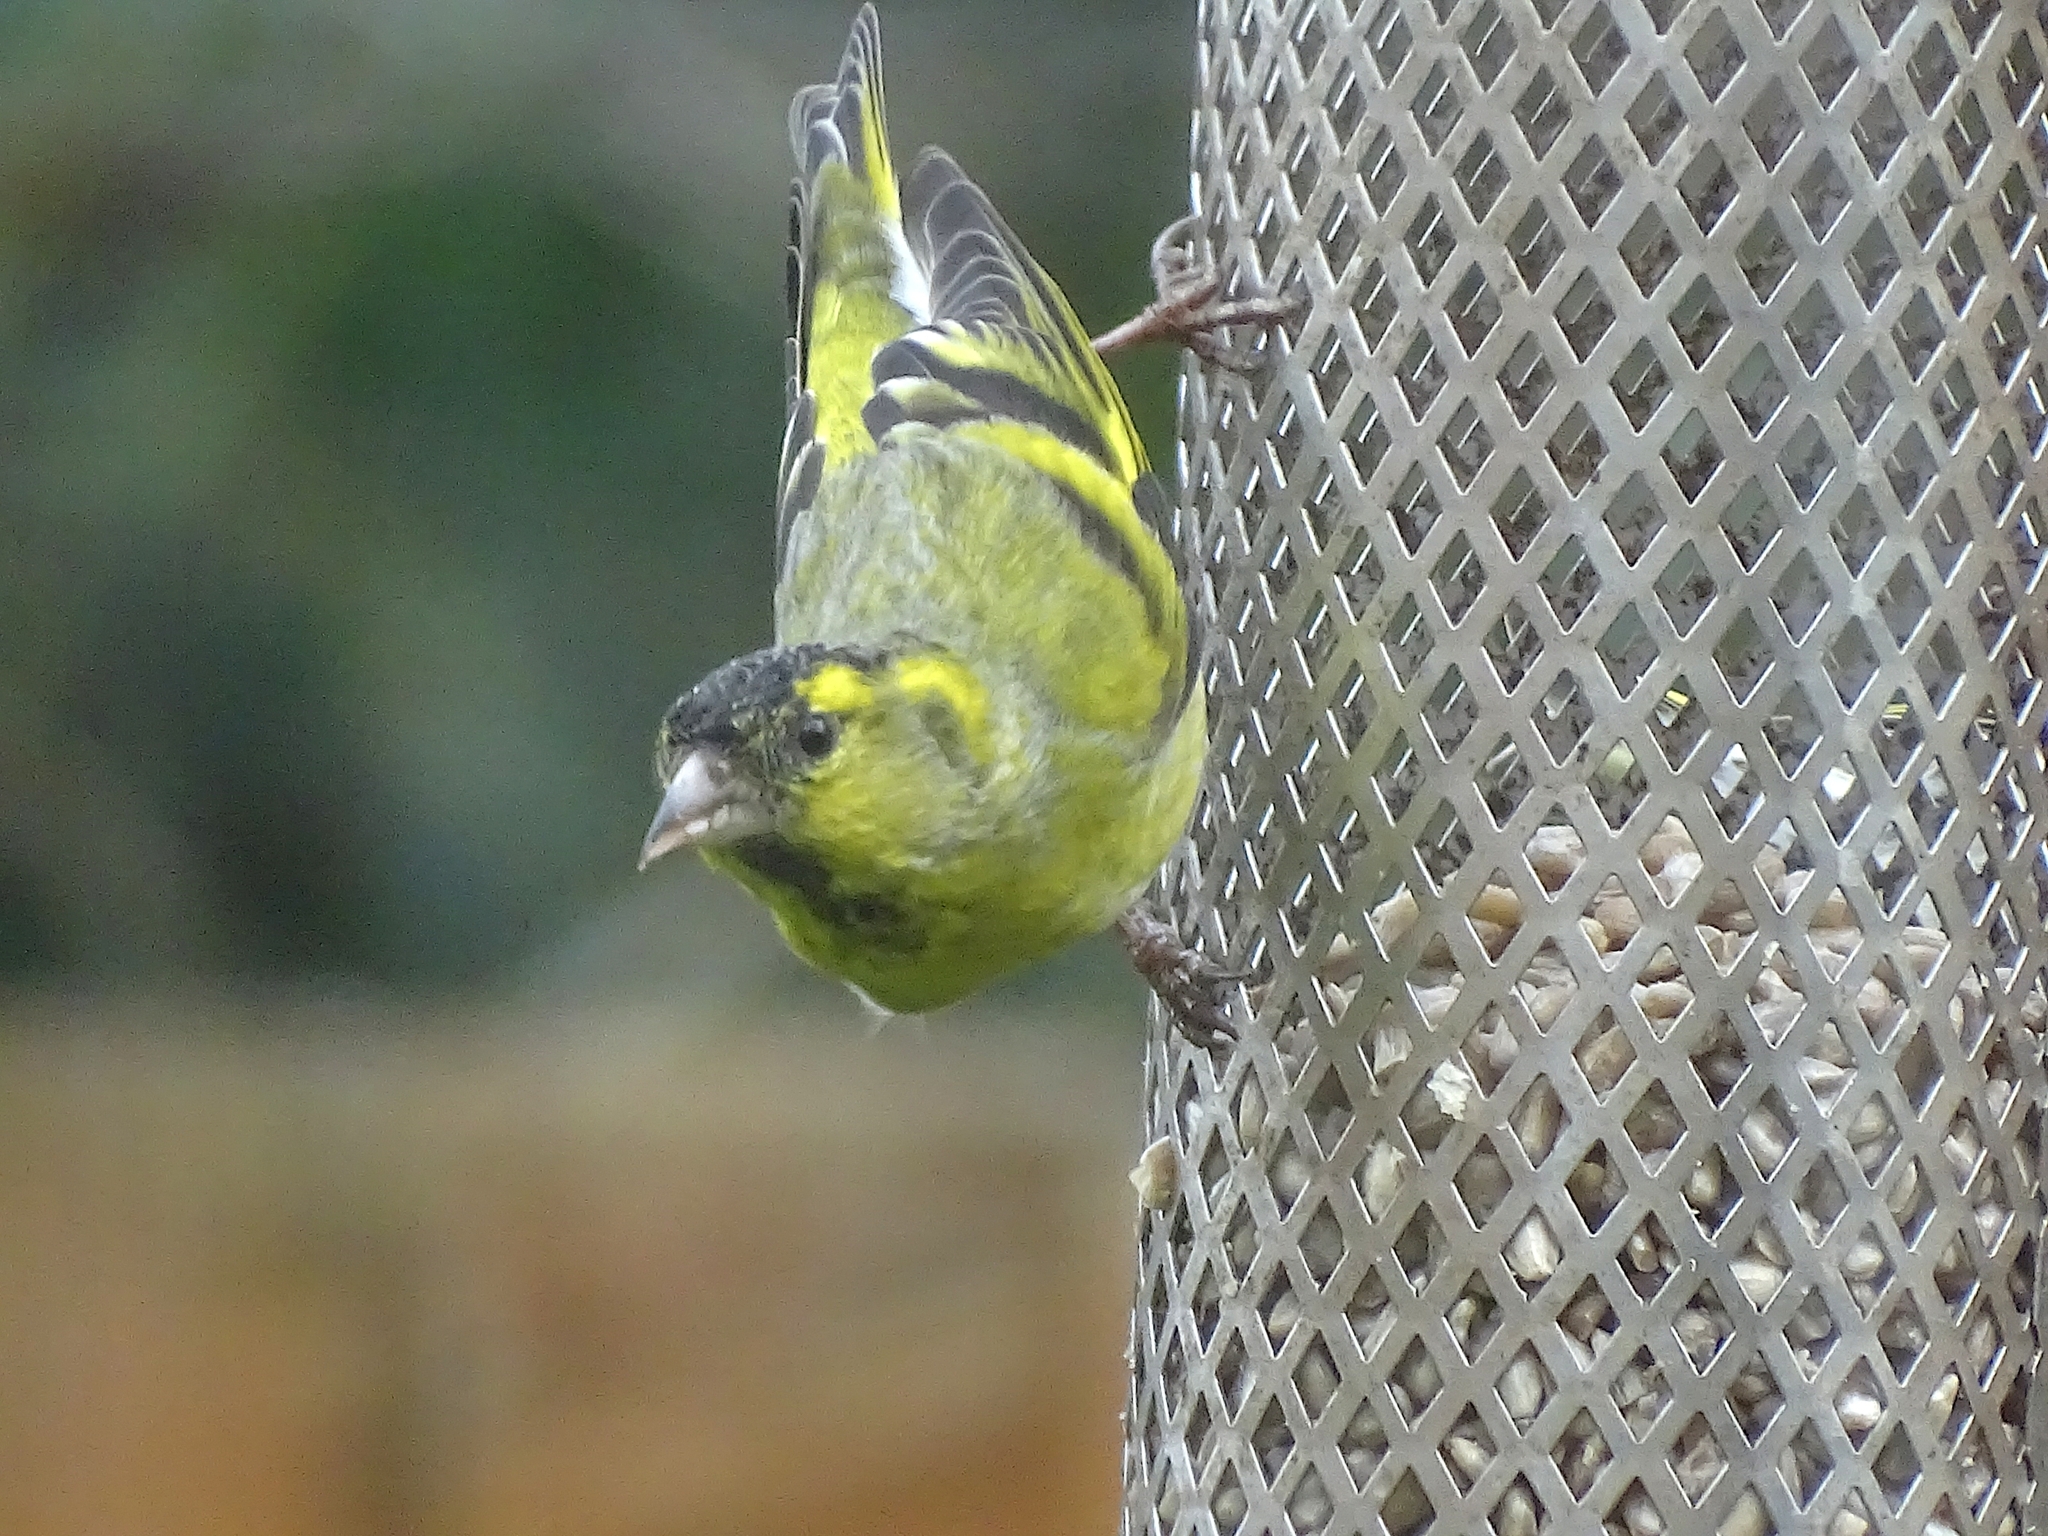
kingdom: Animalia
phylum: Chordata
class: Aves
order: Passeriformes
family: Fringillidae
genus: Spinus
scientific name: Spinus spinus
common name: Eurasian siskin
